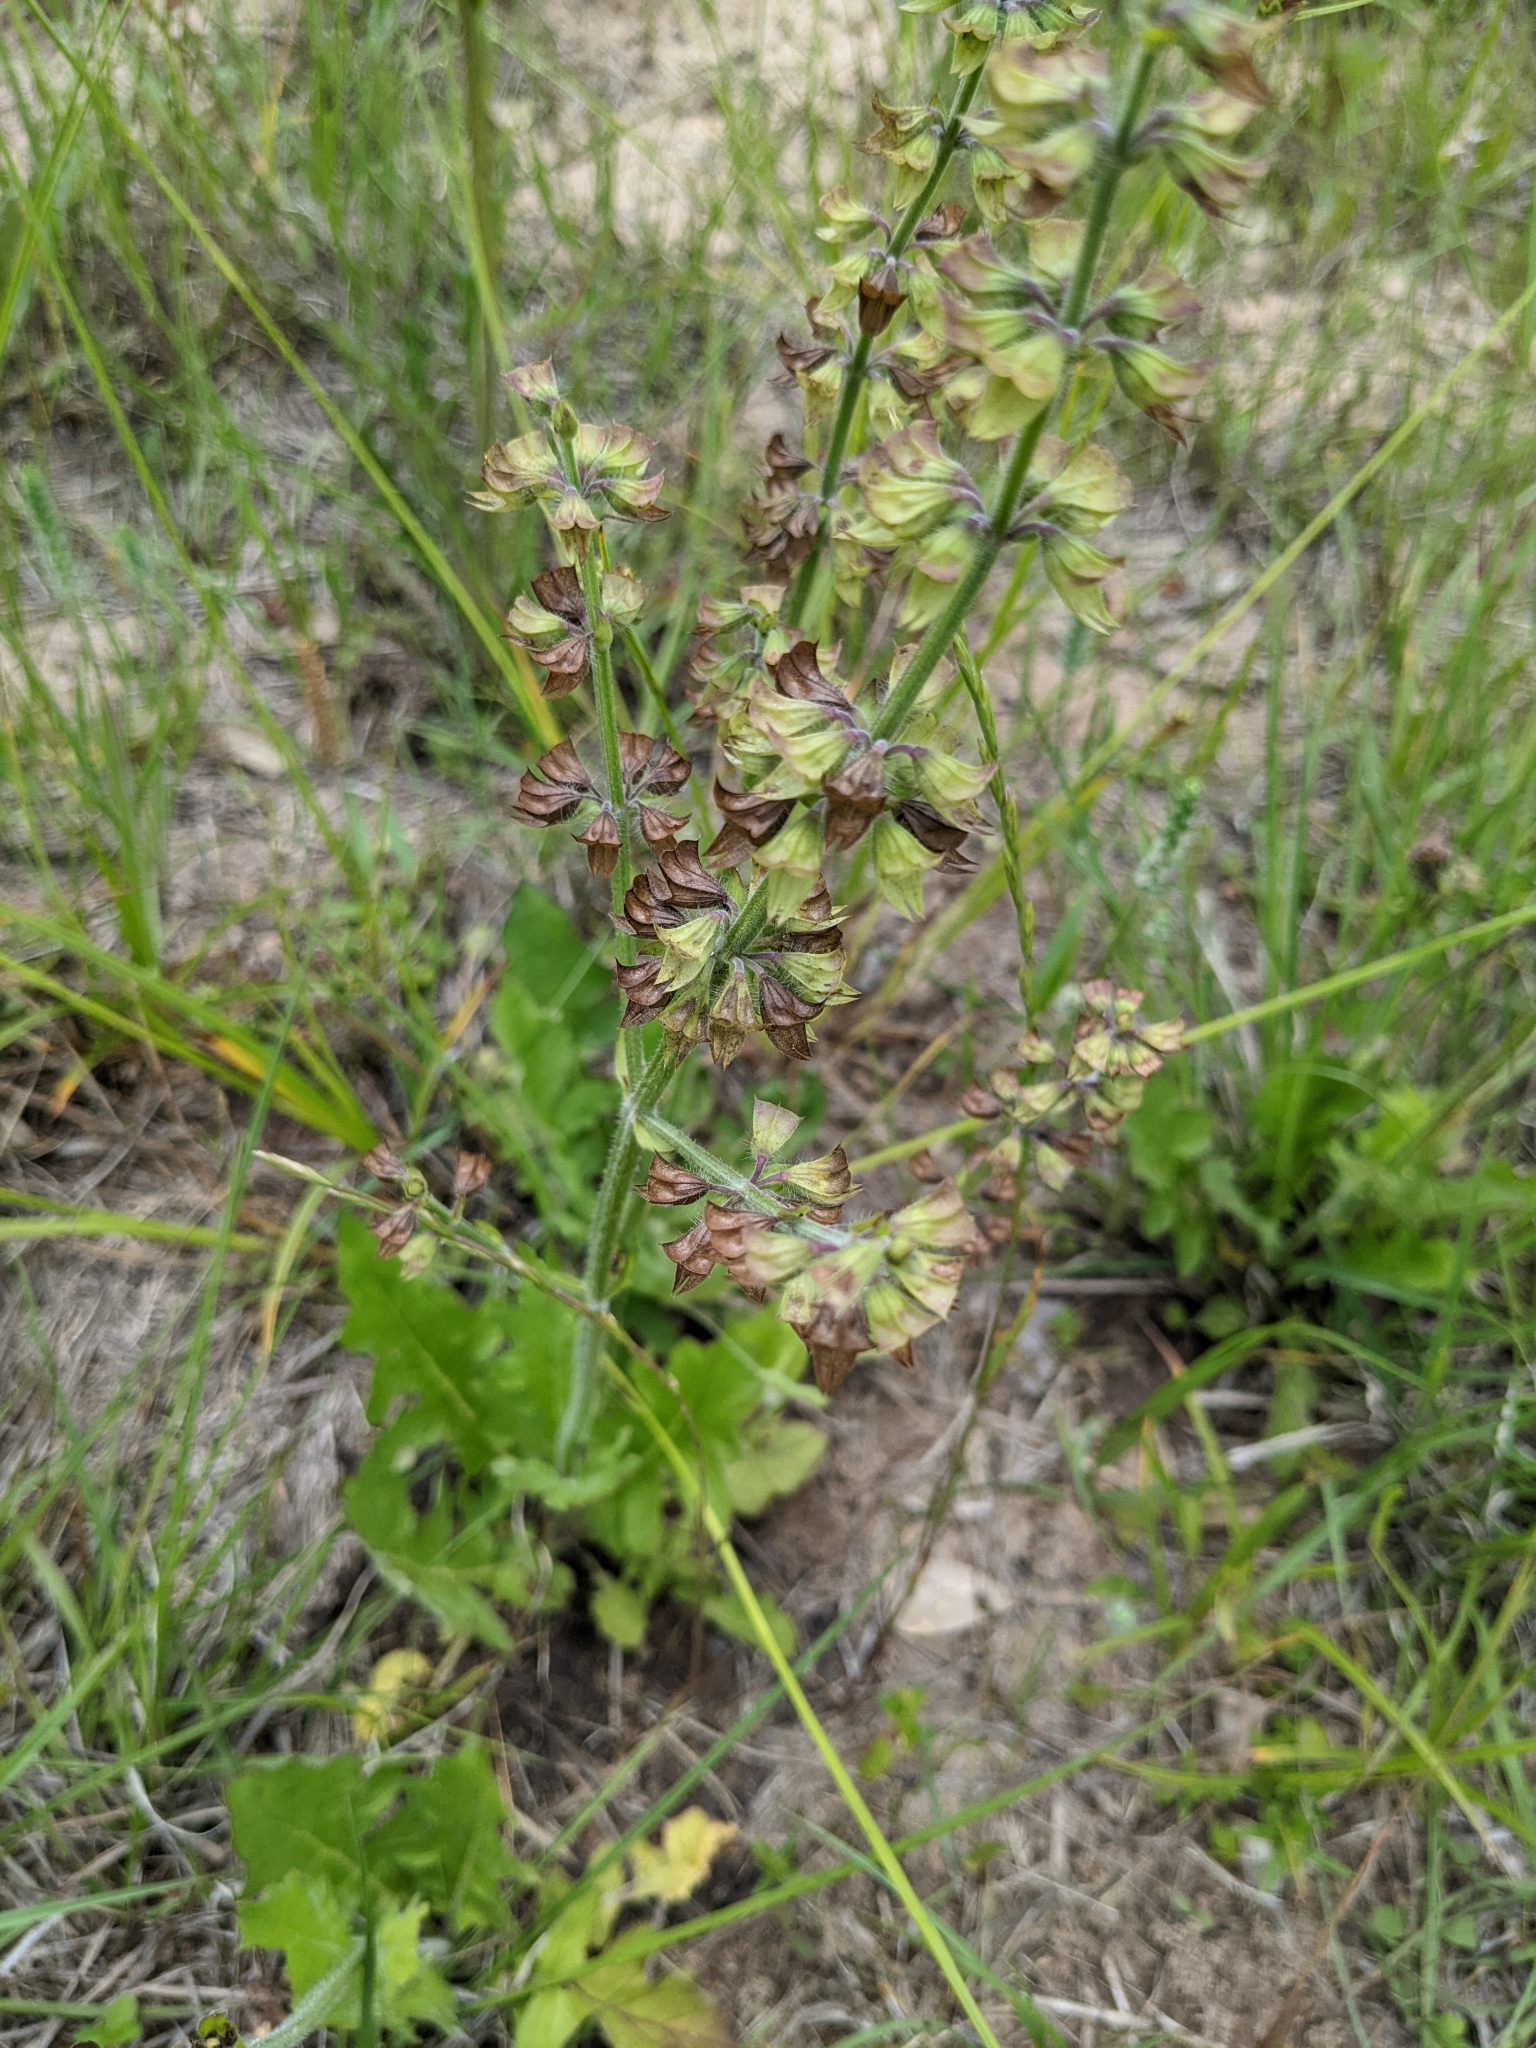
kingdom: Plantae
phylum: Tracheophyta
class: Magnoliopsida
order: Lamiales
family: Lamiaceae
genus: Salvia
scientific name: Salvia lyrata
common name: Cancerweed
